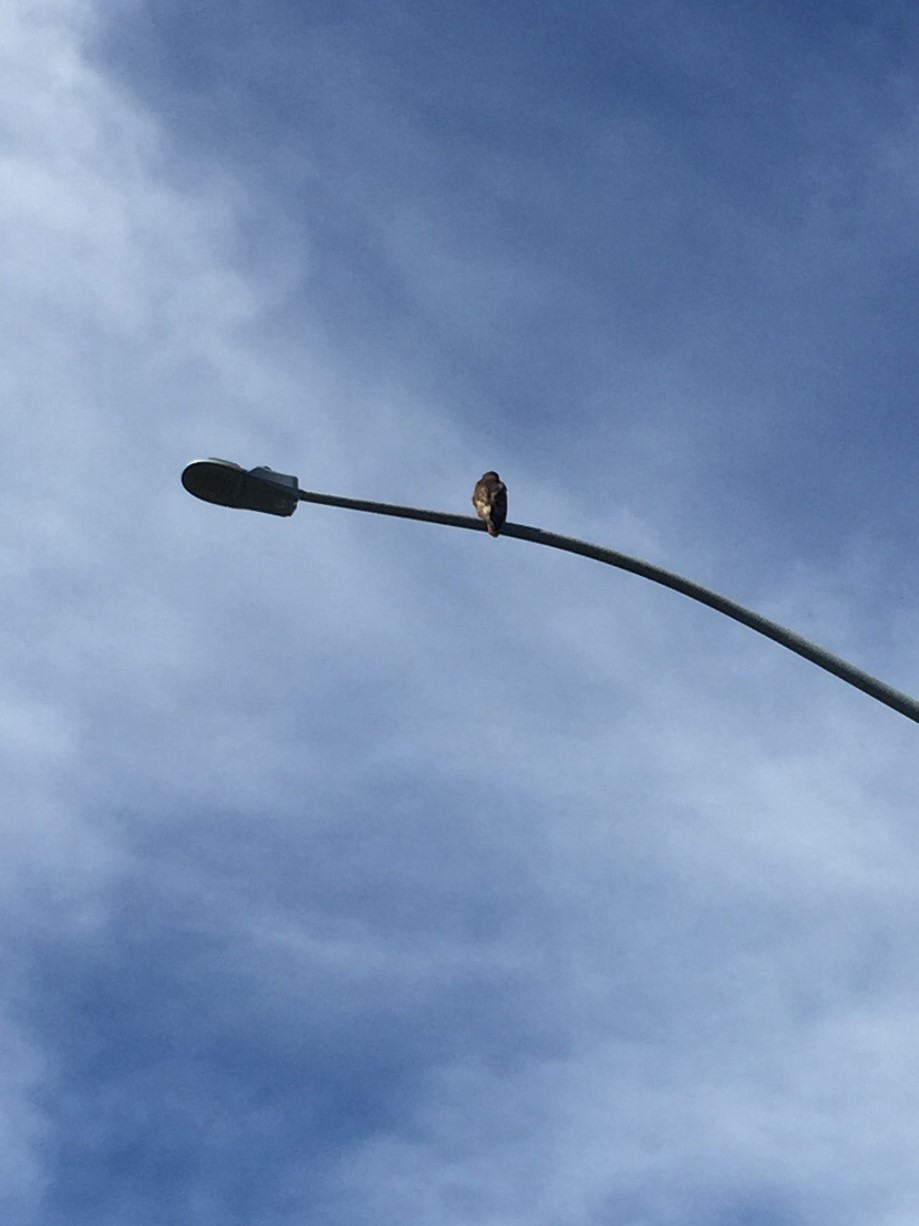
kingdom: Animalia
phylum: Chordata
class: Aves
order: Accipitriformes
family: Accipitridae
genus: Buteo
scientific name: Buteo jamaicensis
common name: Red-tailed hawk
